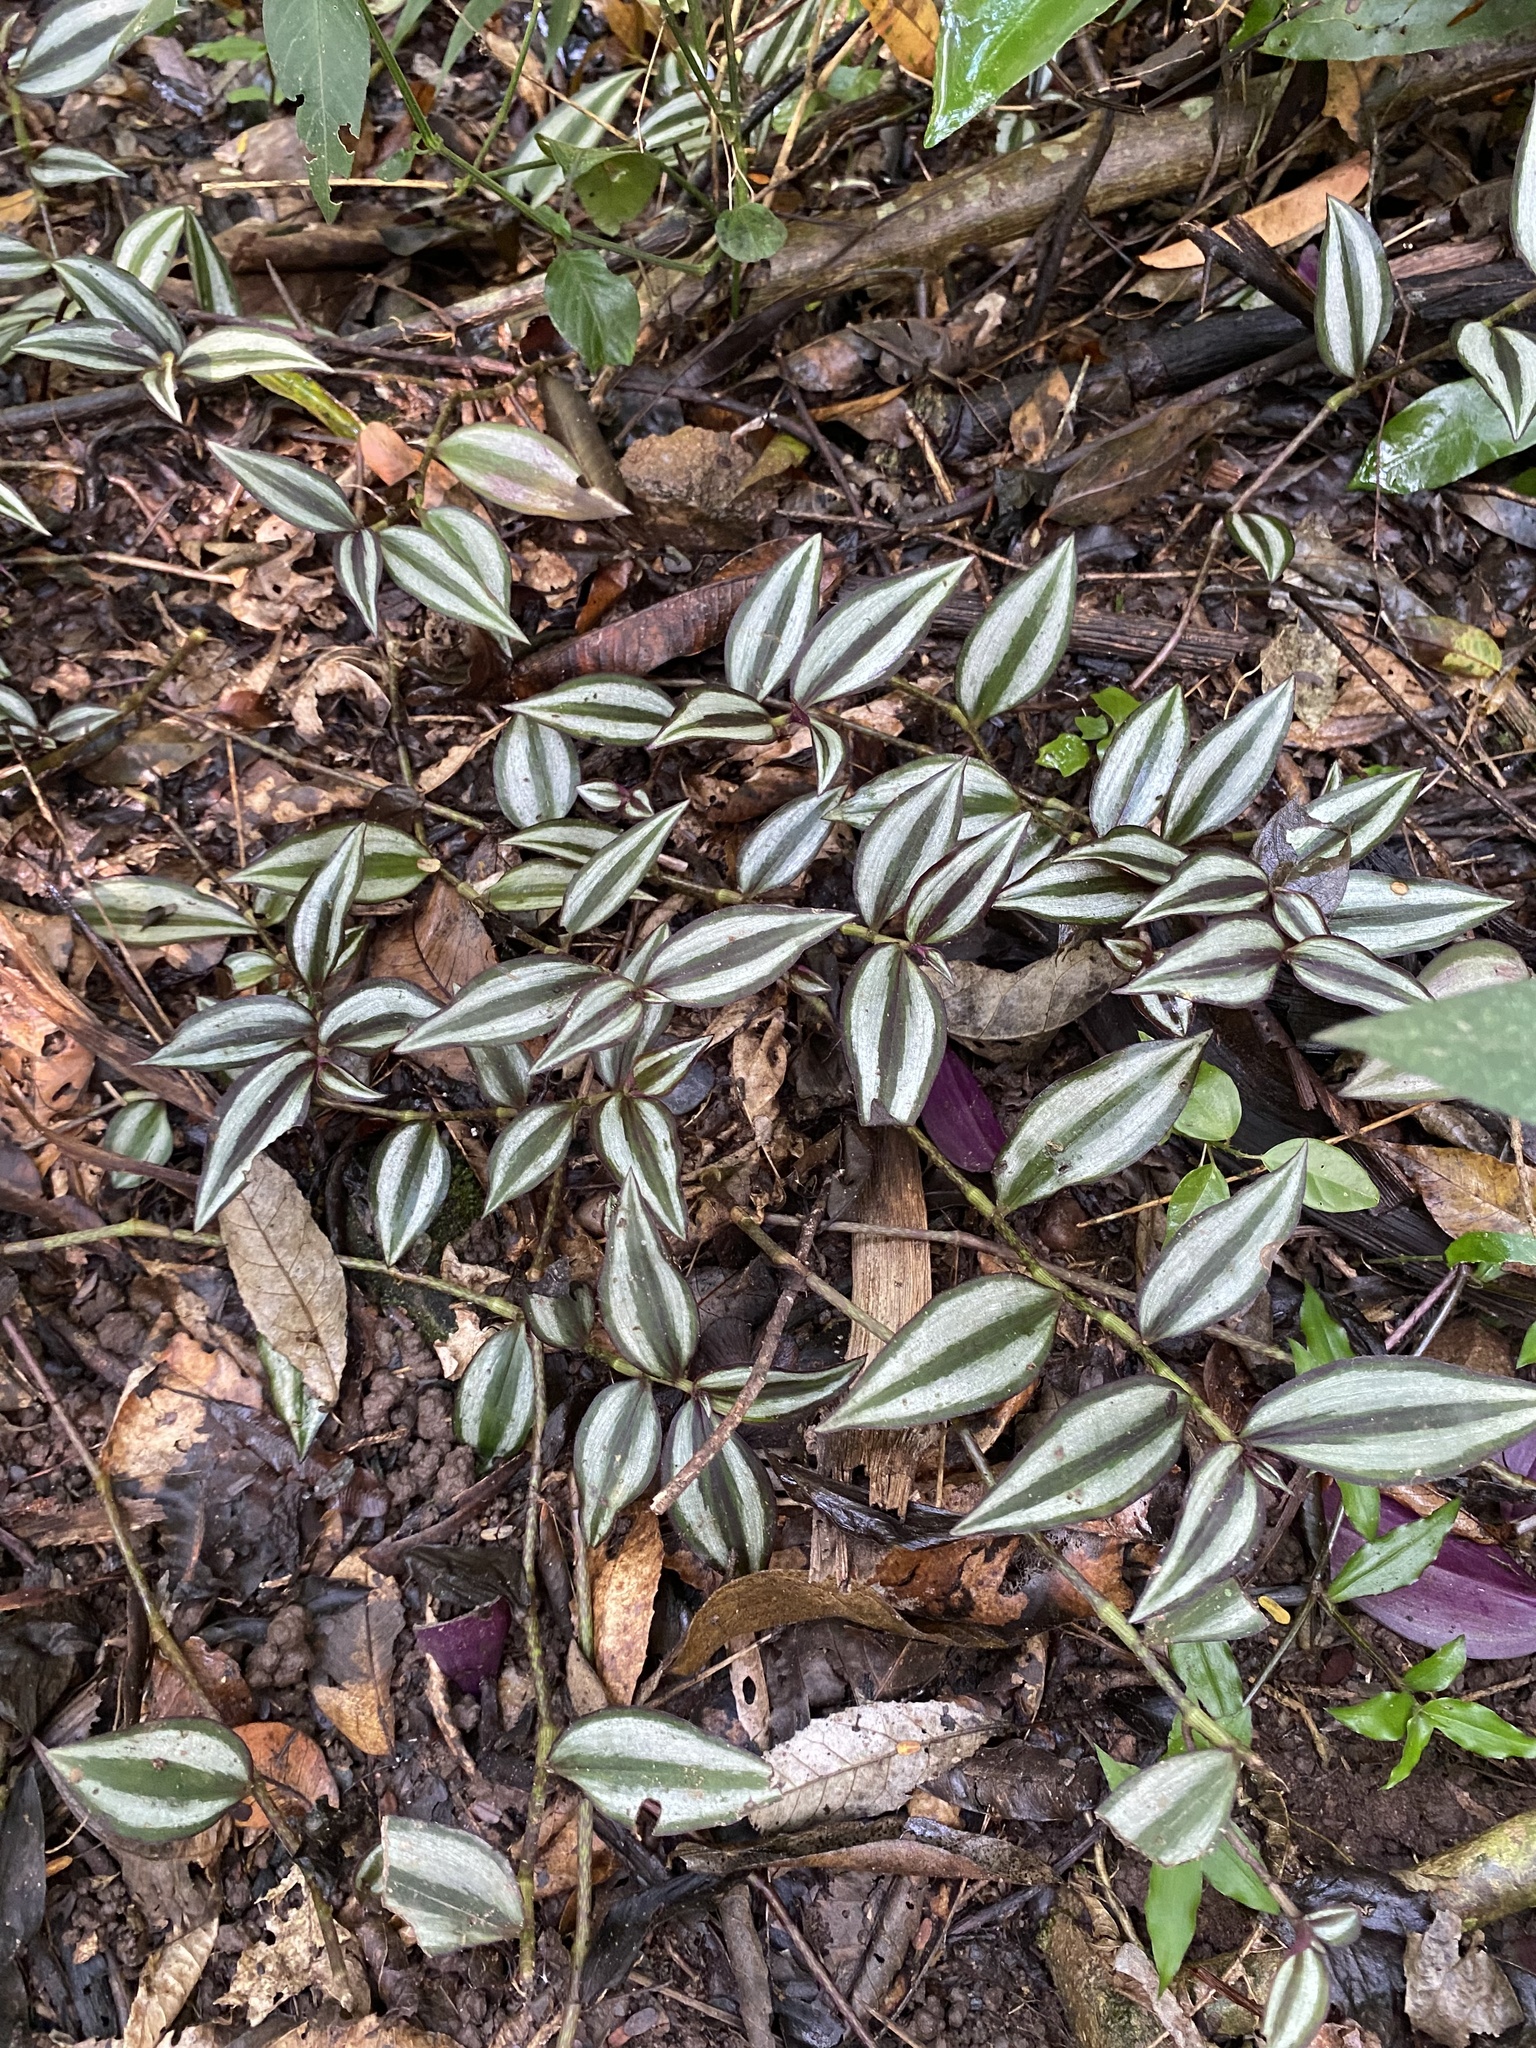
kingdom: Plantae
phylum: Tracheophyta
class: Liliopsida
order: Commelinales
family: Commelinaceae
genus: Tradescantia
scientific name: Tradescantia zebrina
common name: Inchplant
